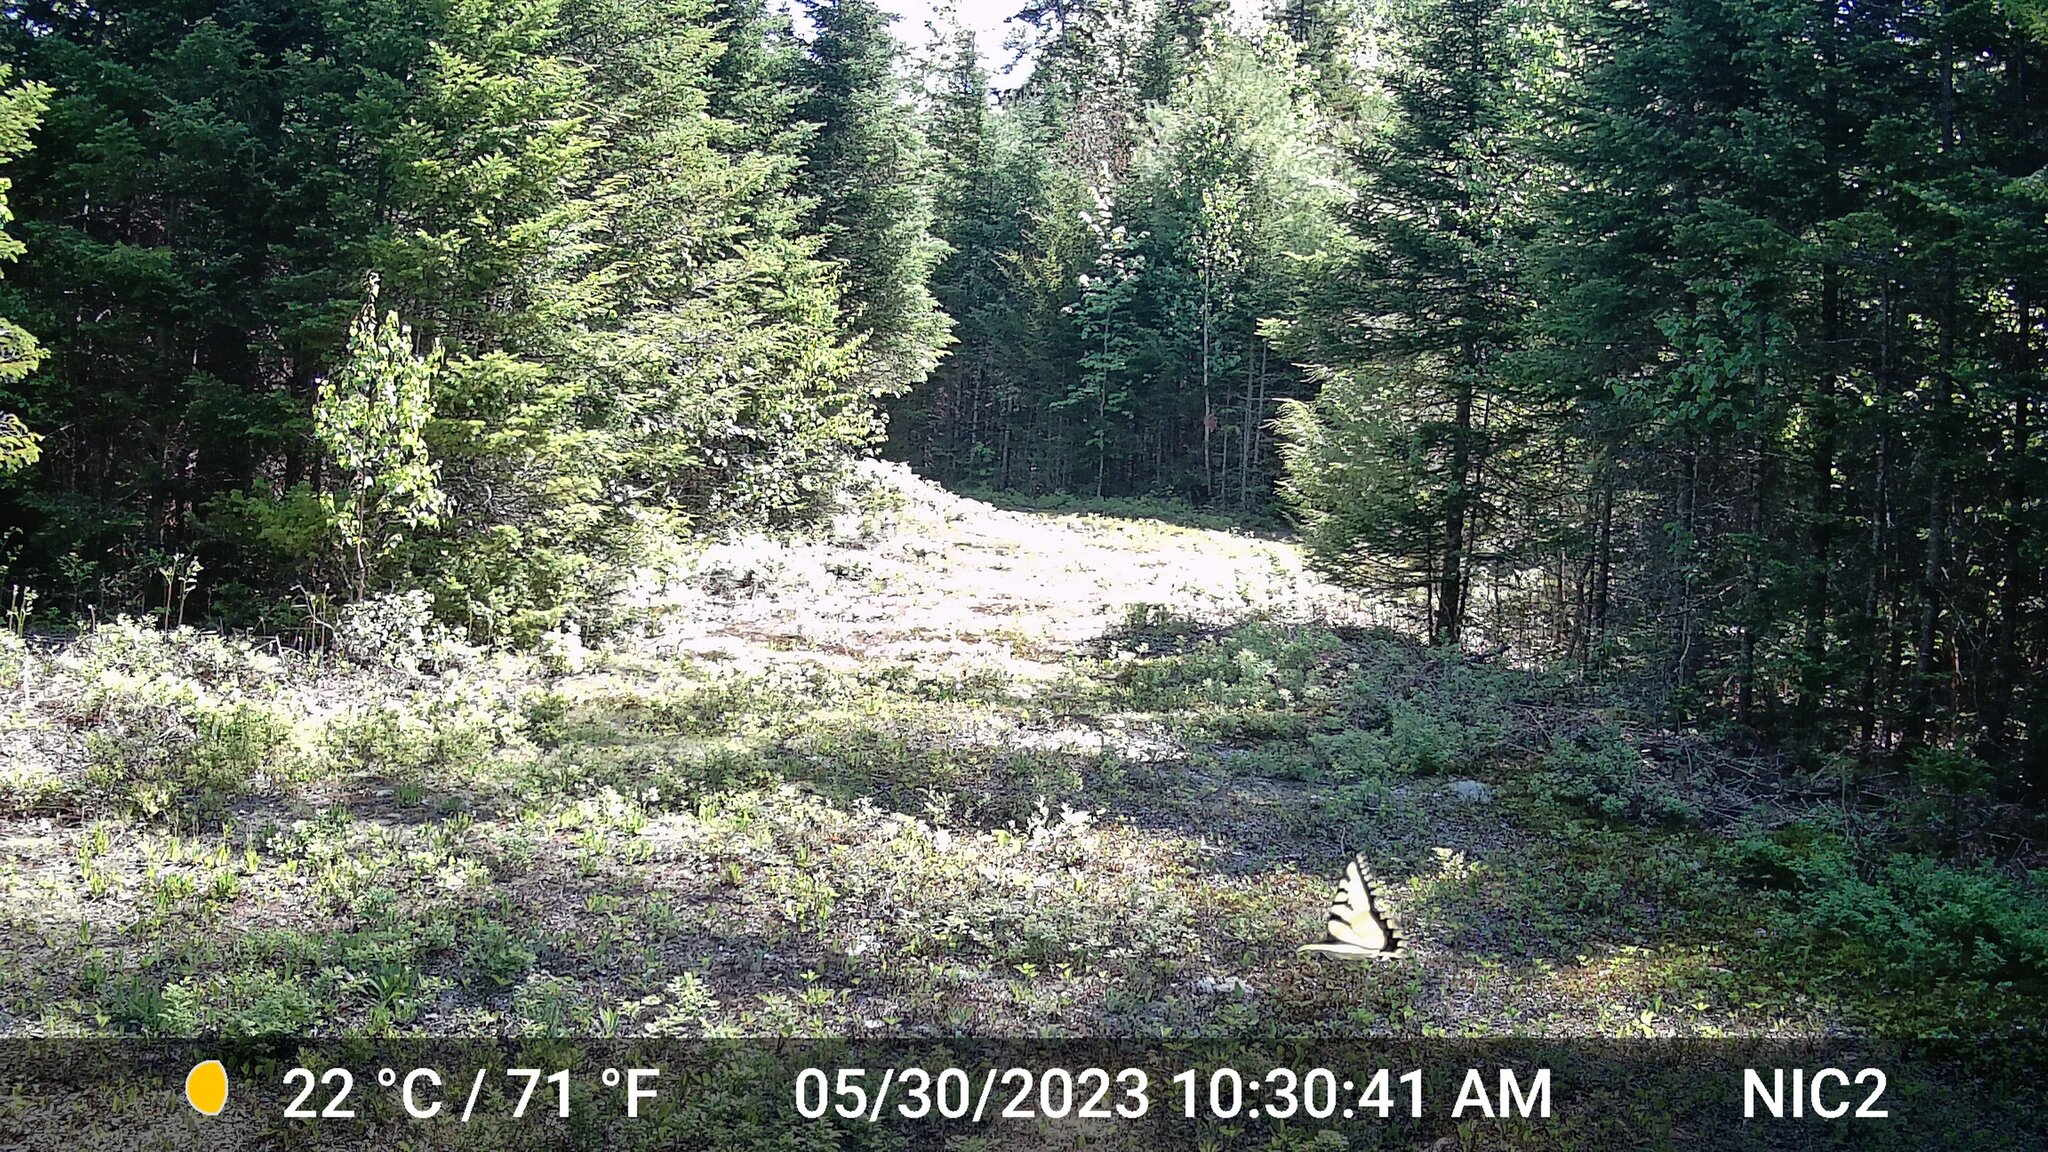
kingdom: Animalia
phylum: Arthropoda
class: Insecta
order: Lepidoptera
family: Papilionidae
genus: Papilio
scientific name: Papilio glaucus
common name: Tiger swallowtail
